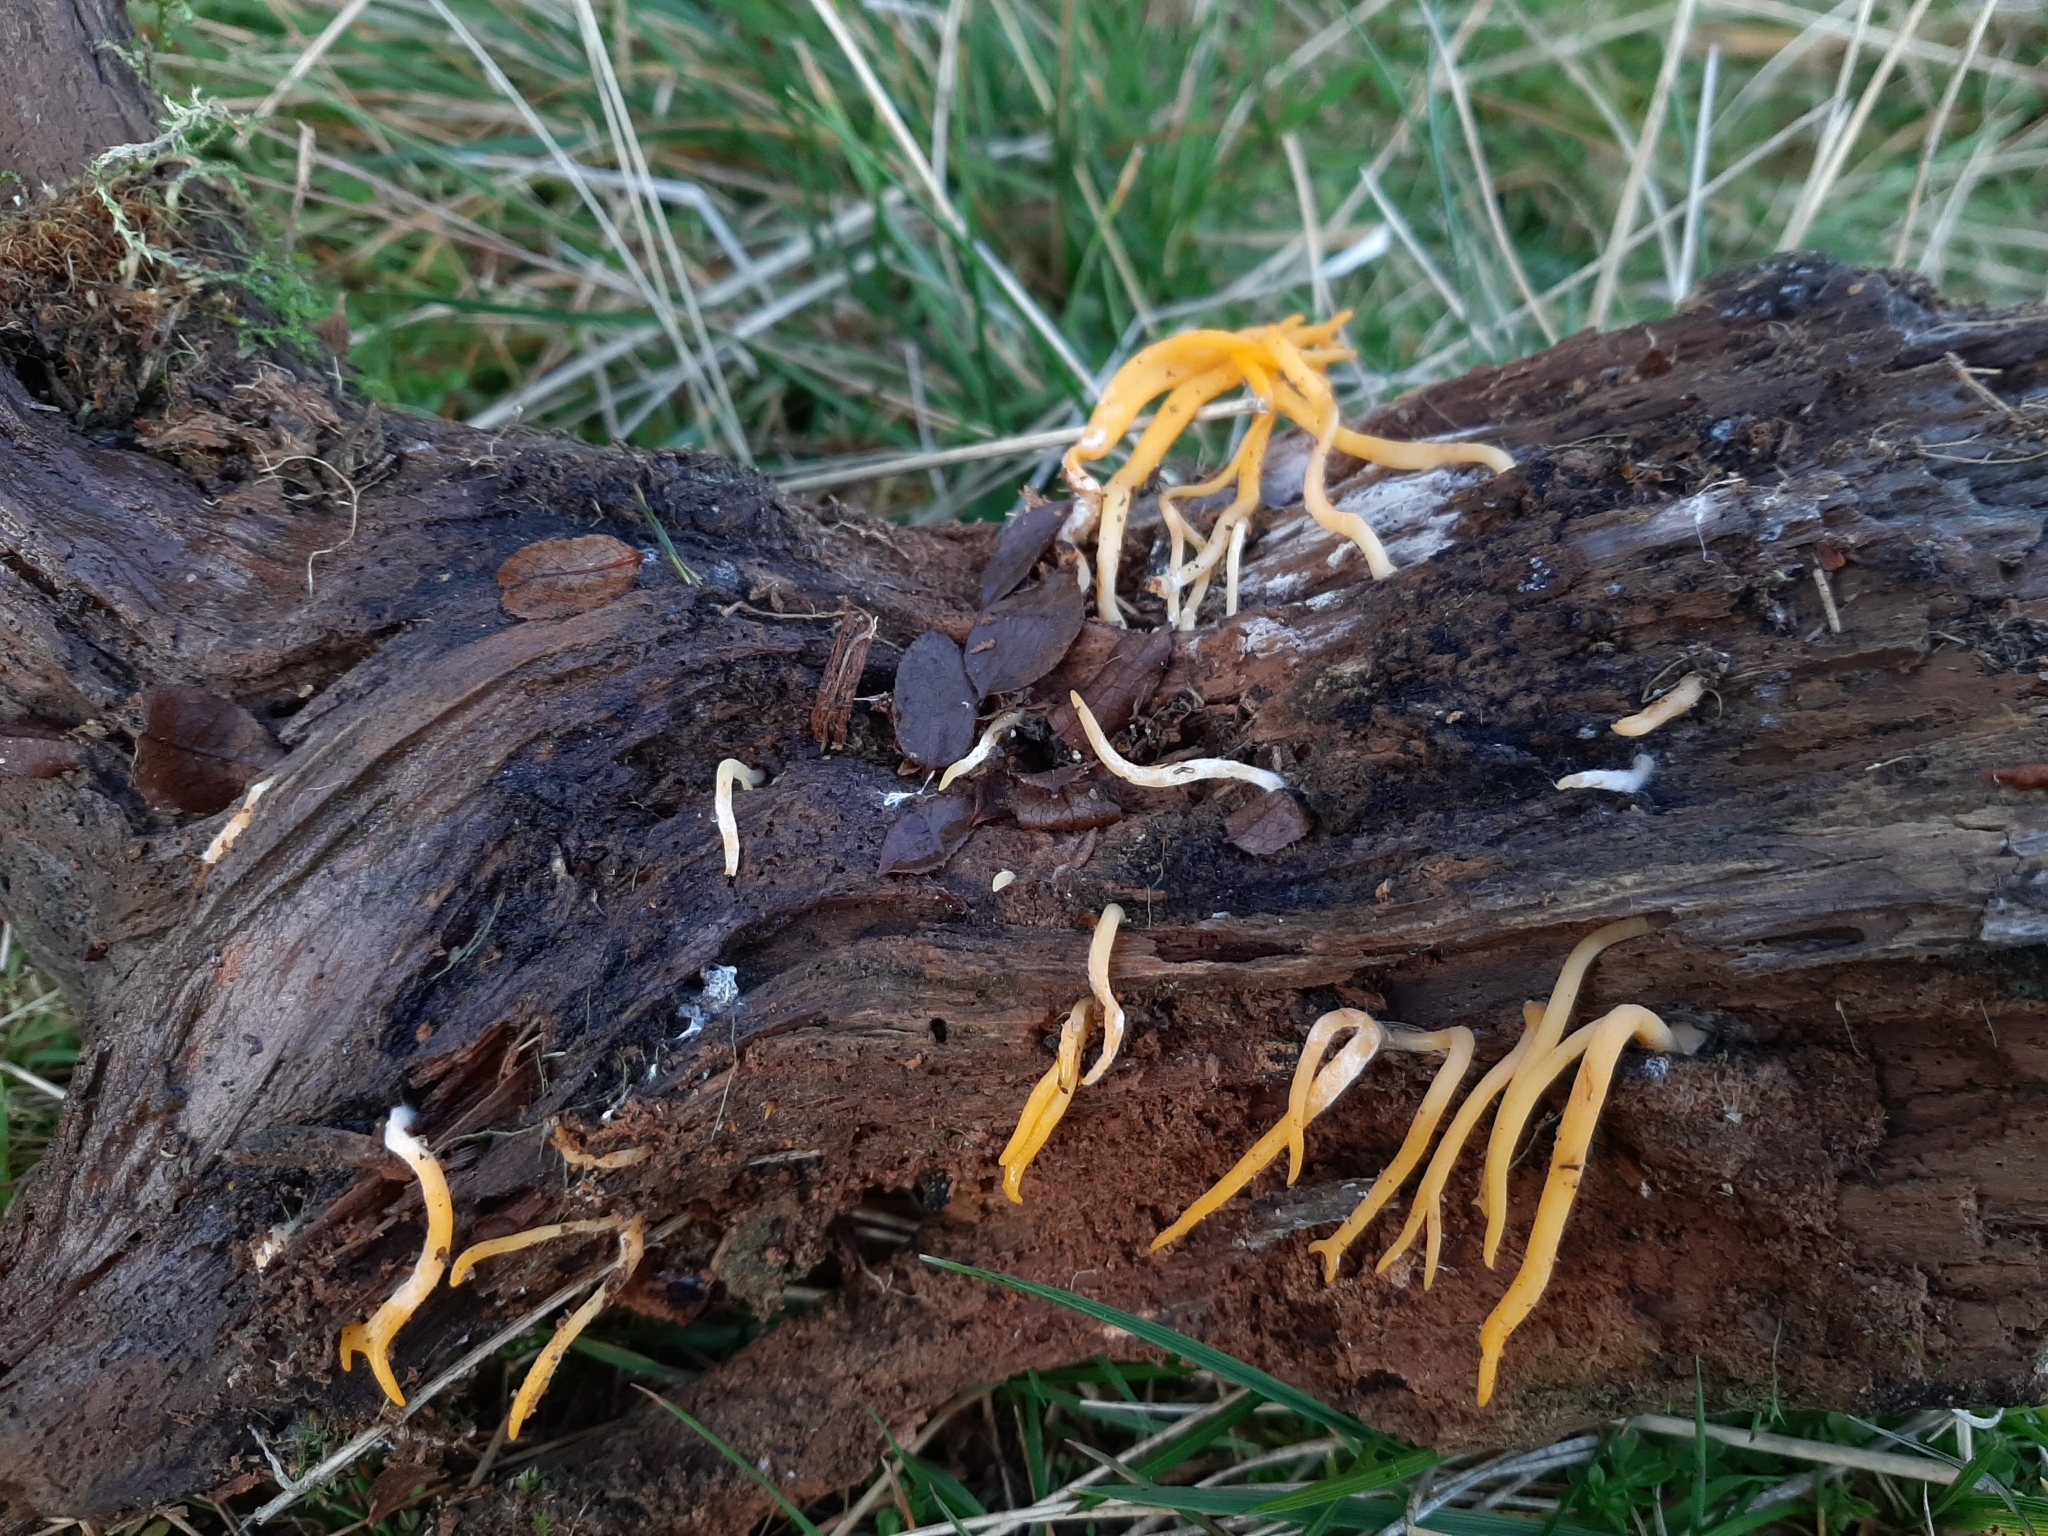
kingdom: Fungi
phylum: Basidiomycota
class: Dacrymycetes
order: Dacrymycetales
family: Dacrymycetaceae
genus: Calocera
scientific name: Calocera viscosa
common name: Yellow stagshorn
